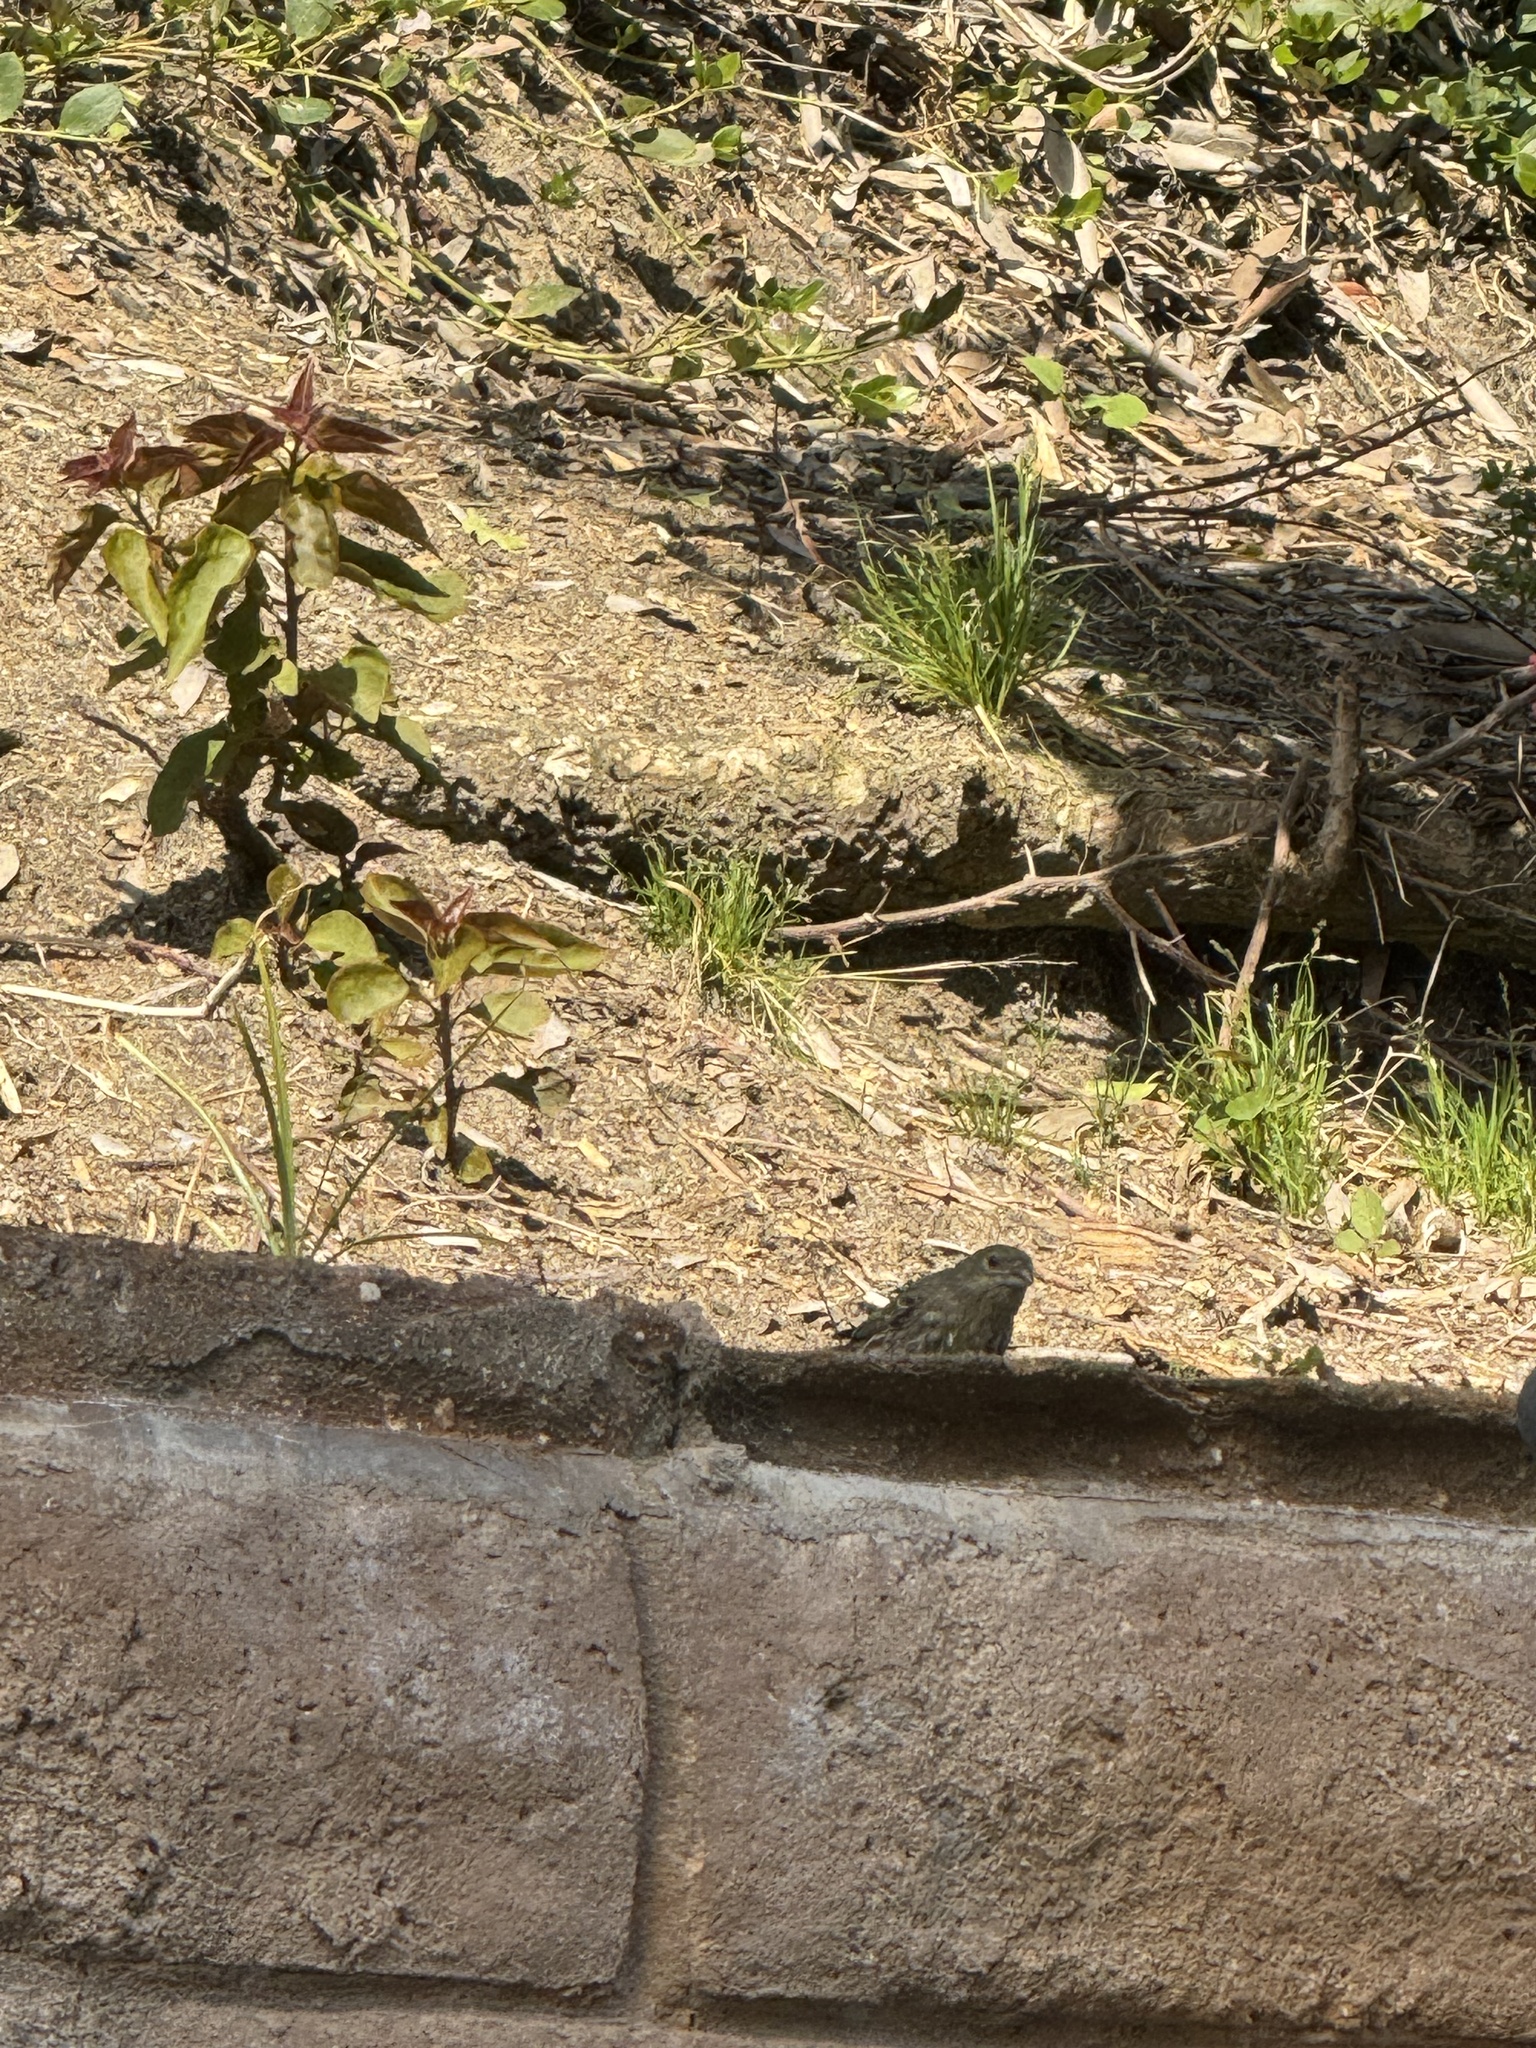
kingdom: Animalia
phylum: Chordata
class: Aves
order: Passeriformes
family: Fringillidae
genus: Haemorhous
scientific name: Haemorhous mexicanus
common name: House finch
